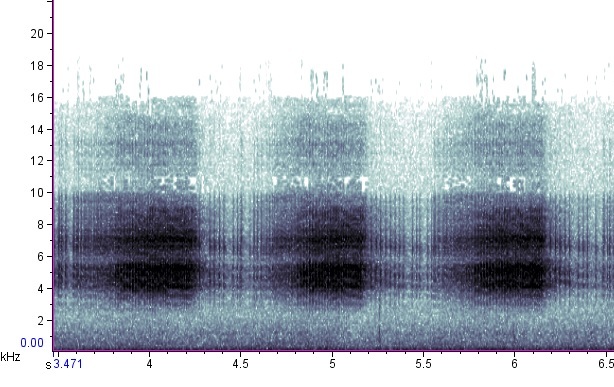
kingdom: Animalia
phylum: Arthropoda
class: Insecta
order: Hemiptera
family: Cicadidae
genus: Neotibicen
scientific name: Neotibicen robinsonianus
